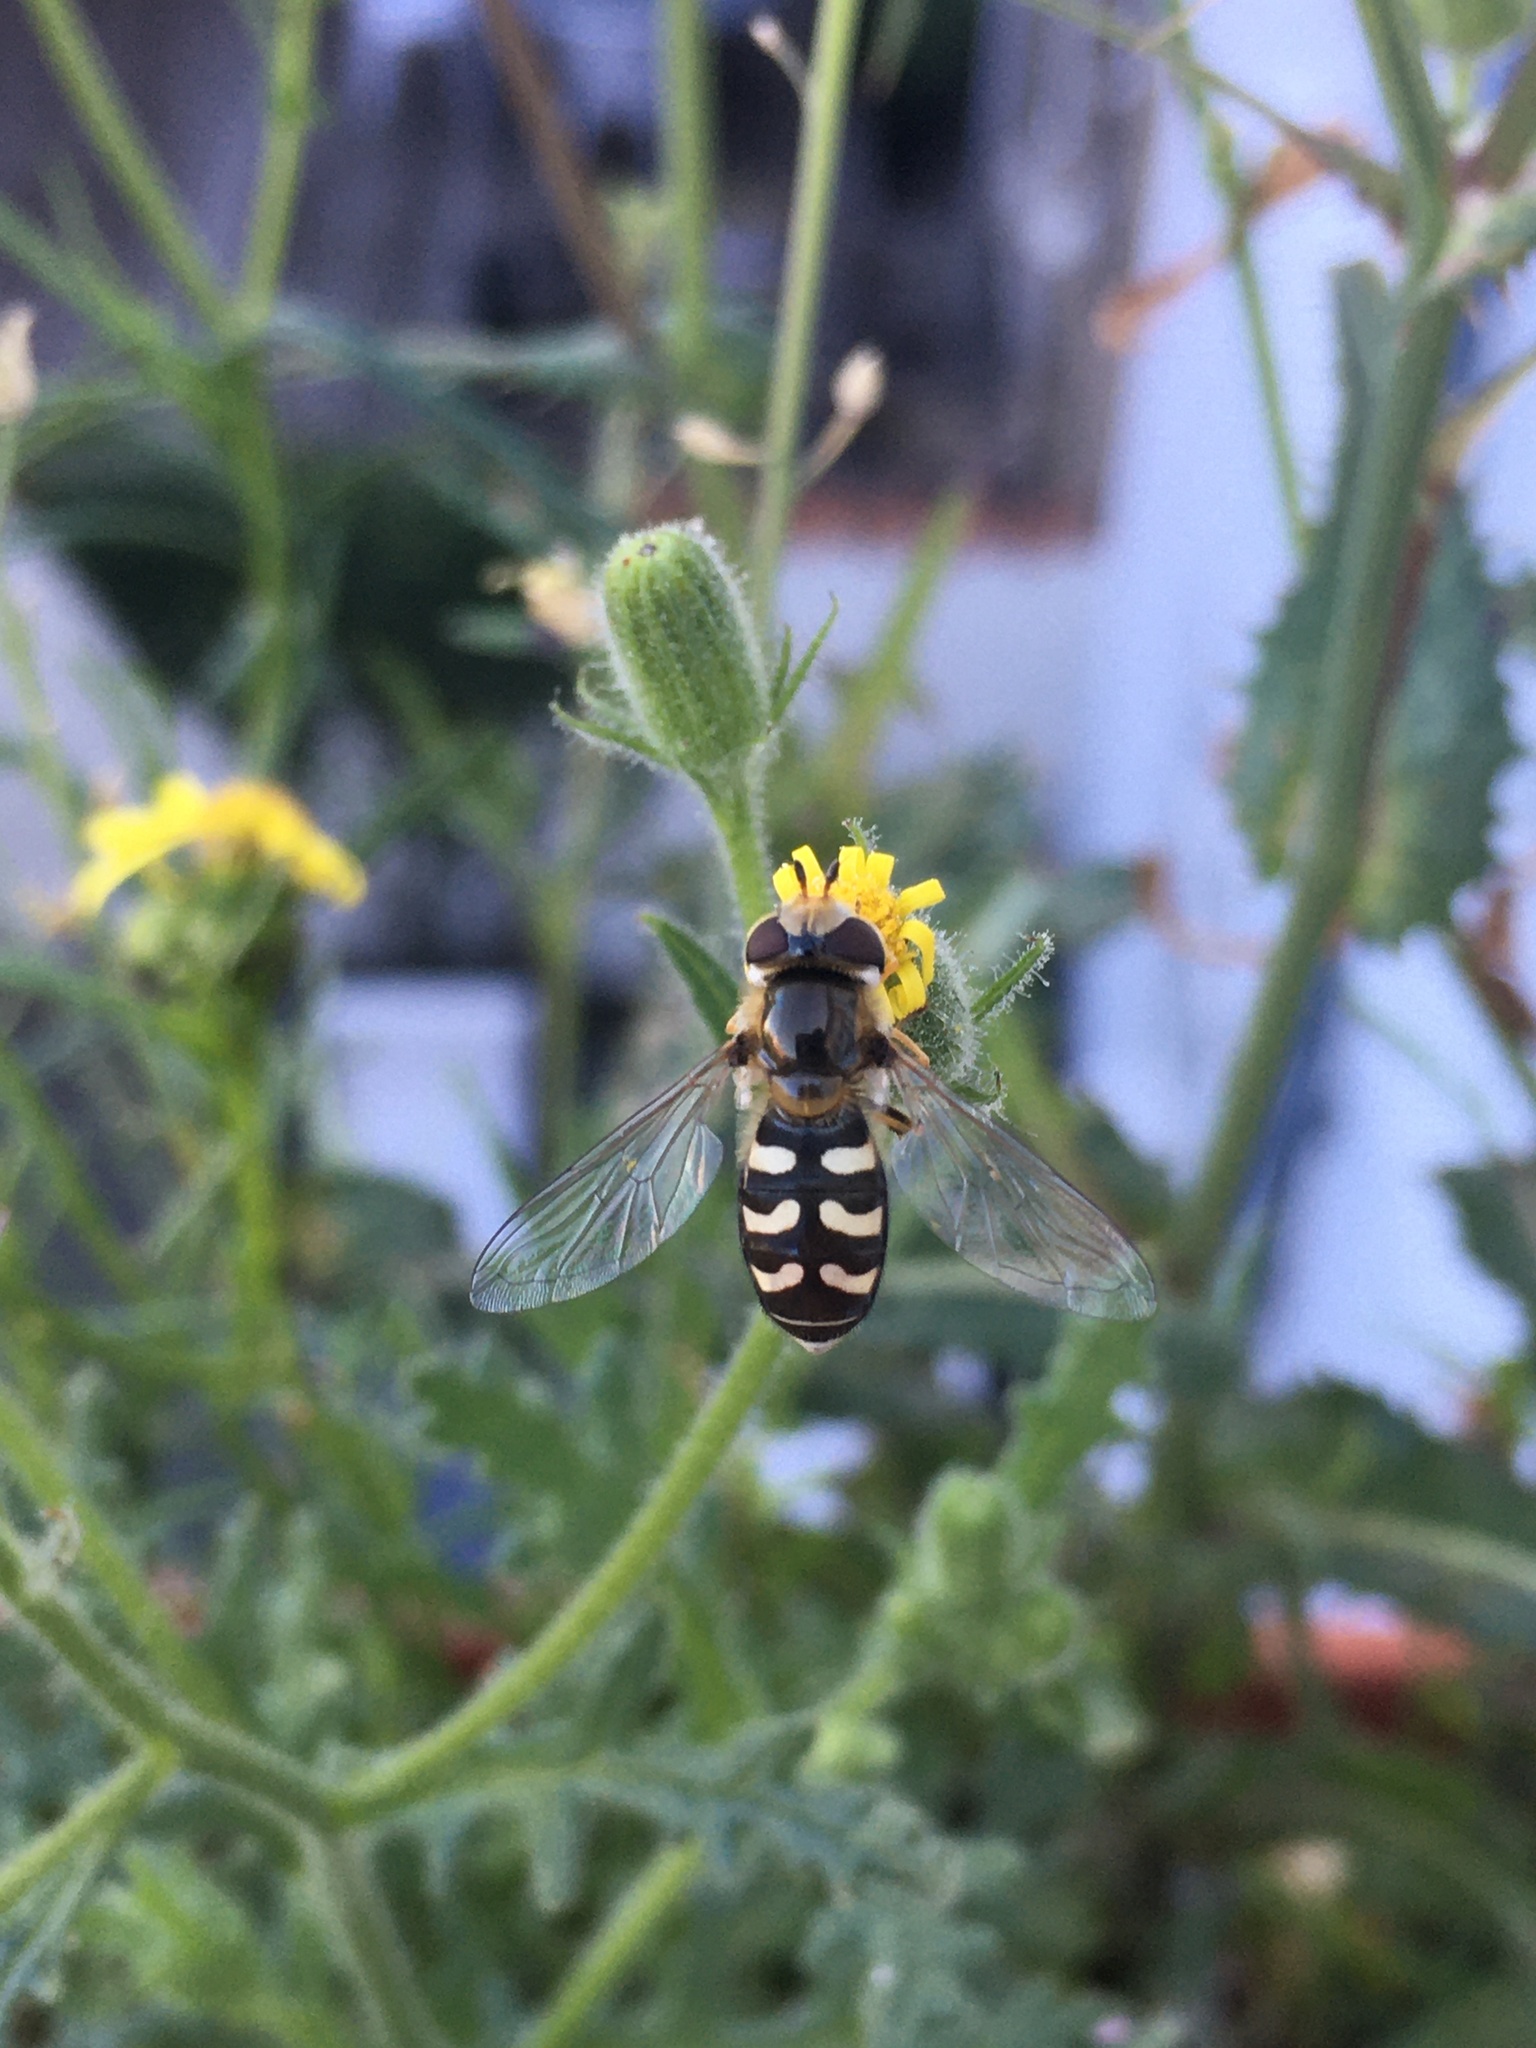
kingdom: Animalia
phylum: Arthropoda
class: Insecta
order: Diptera
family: Syrphidae
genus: Scaeva
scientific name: Scaeva pyrastri
